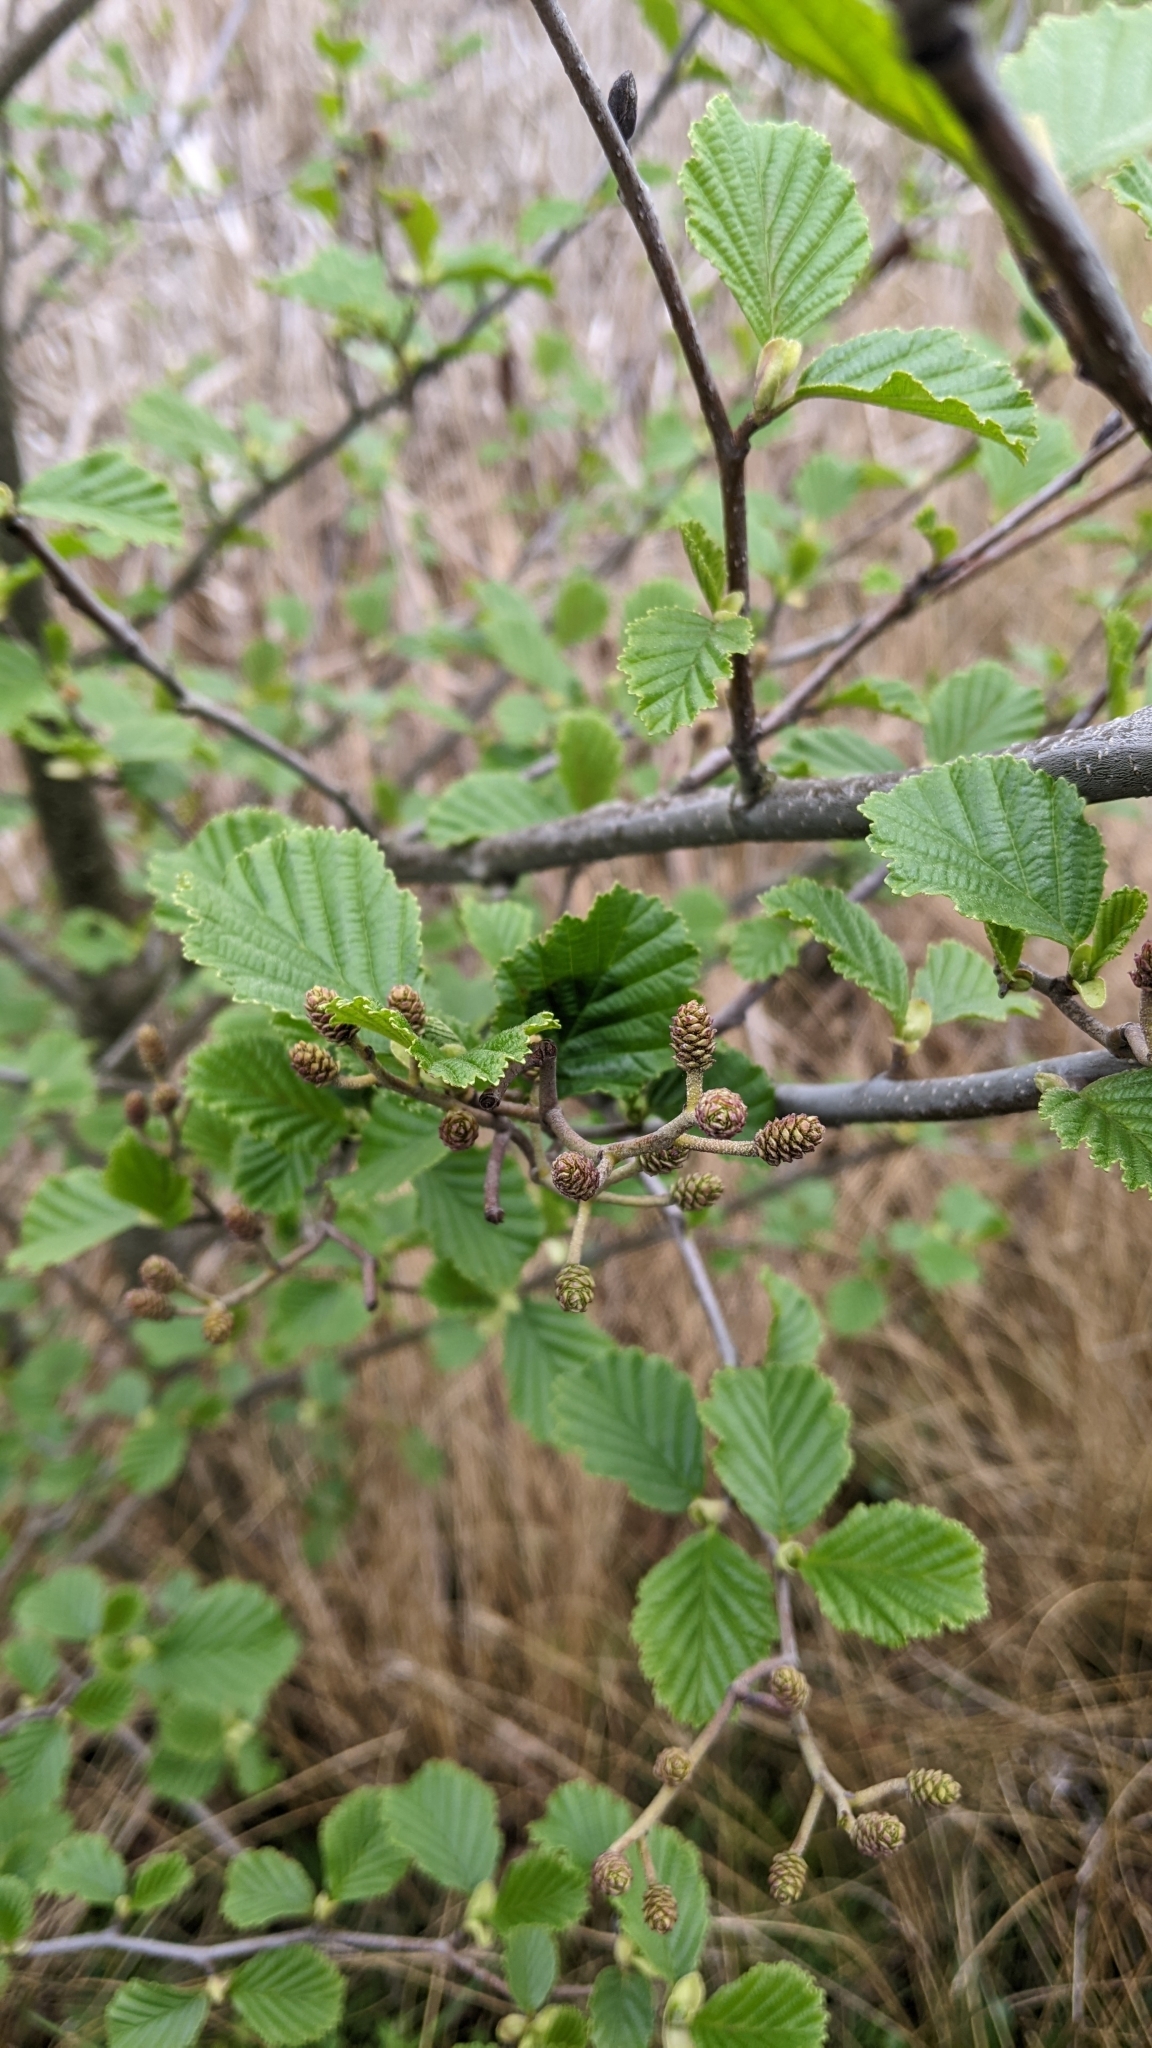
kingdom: Plantae
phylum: Tracheophyta
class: Magnoliopsida
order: Fagales
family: Betulaceae
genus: Alnus
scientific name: Alnus glutinosa
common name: Black alder
